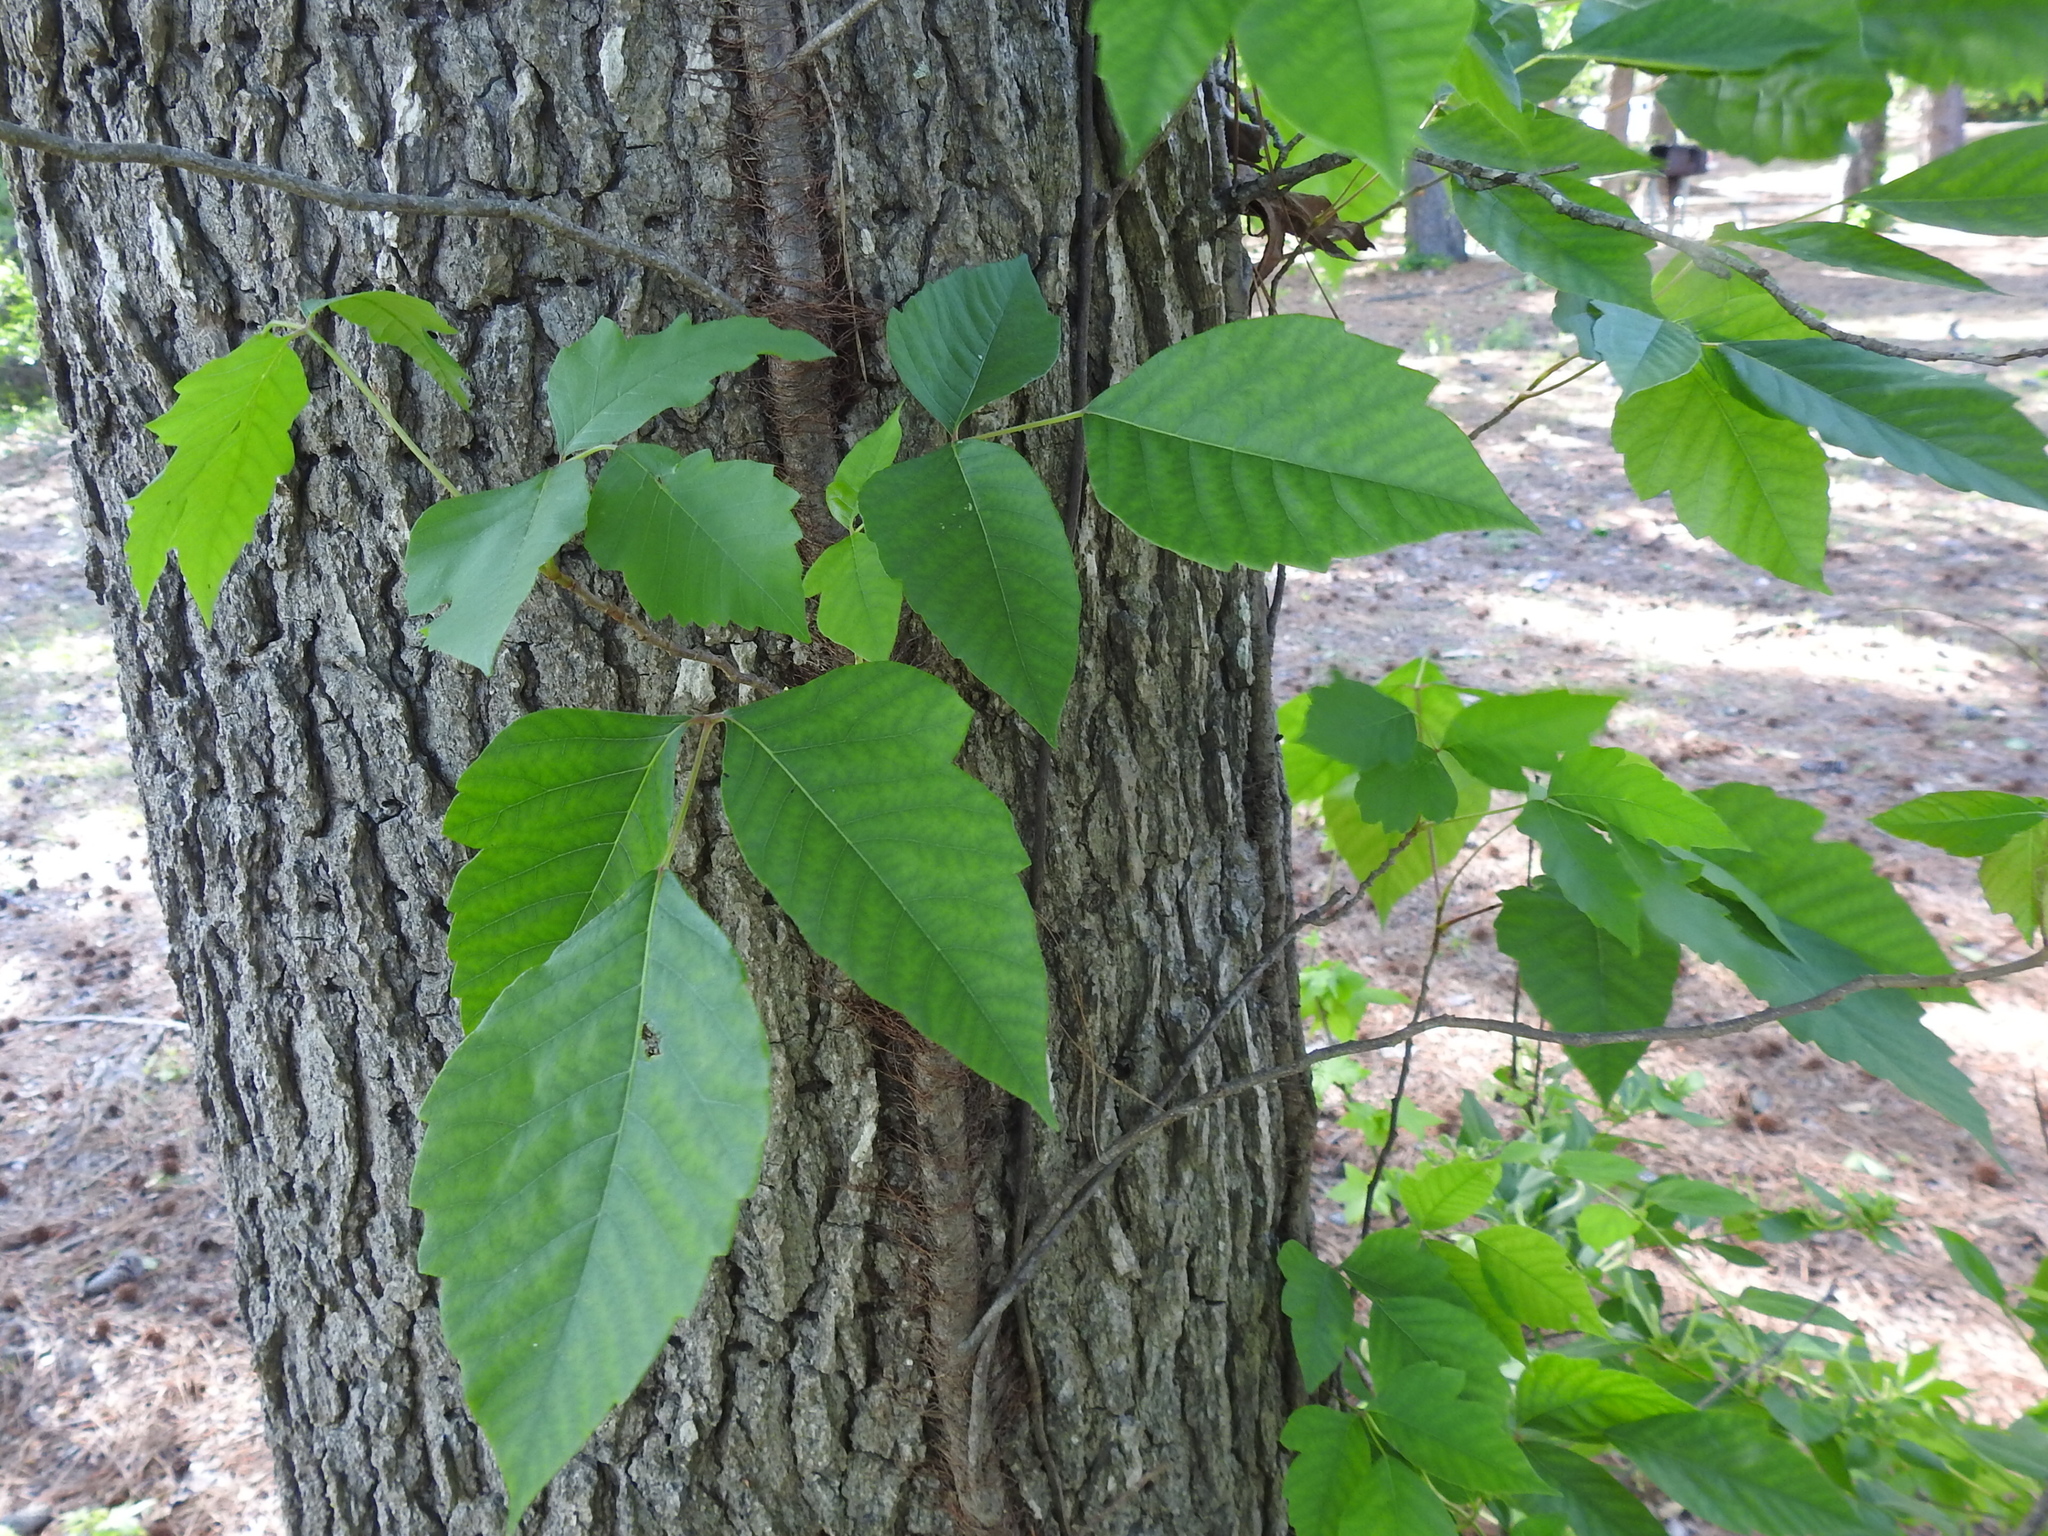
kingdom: Plantae
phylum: Tracheophyta
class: Magnoliopsida
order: Sapindales
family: Anacardiaceae
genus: Toxicodendron
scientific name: Toxicodendron radicans
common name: Poison ivy
